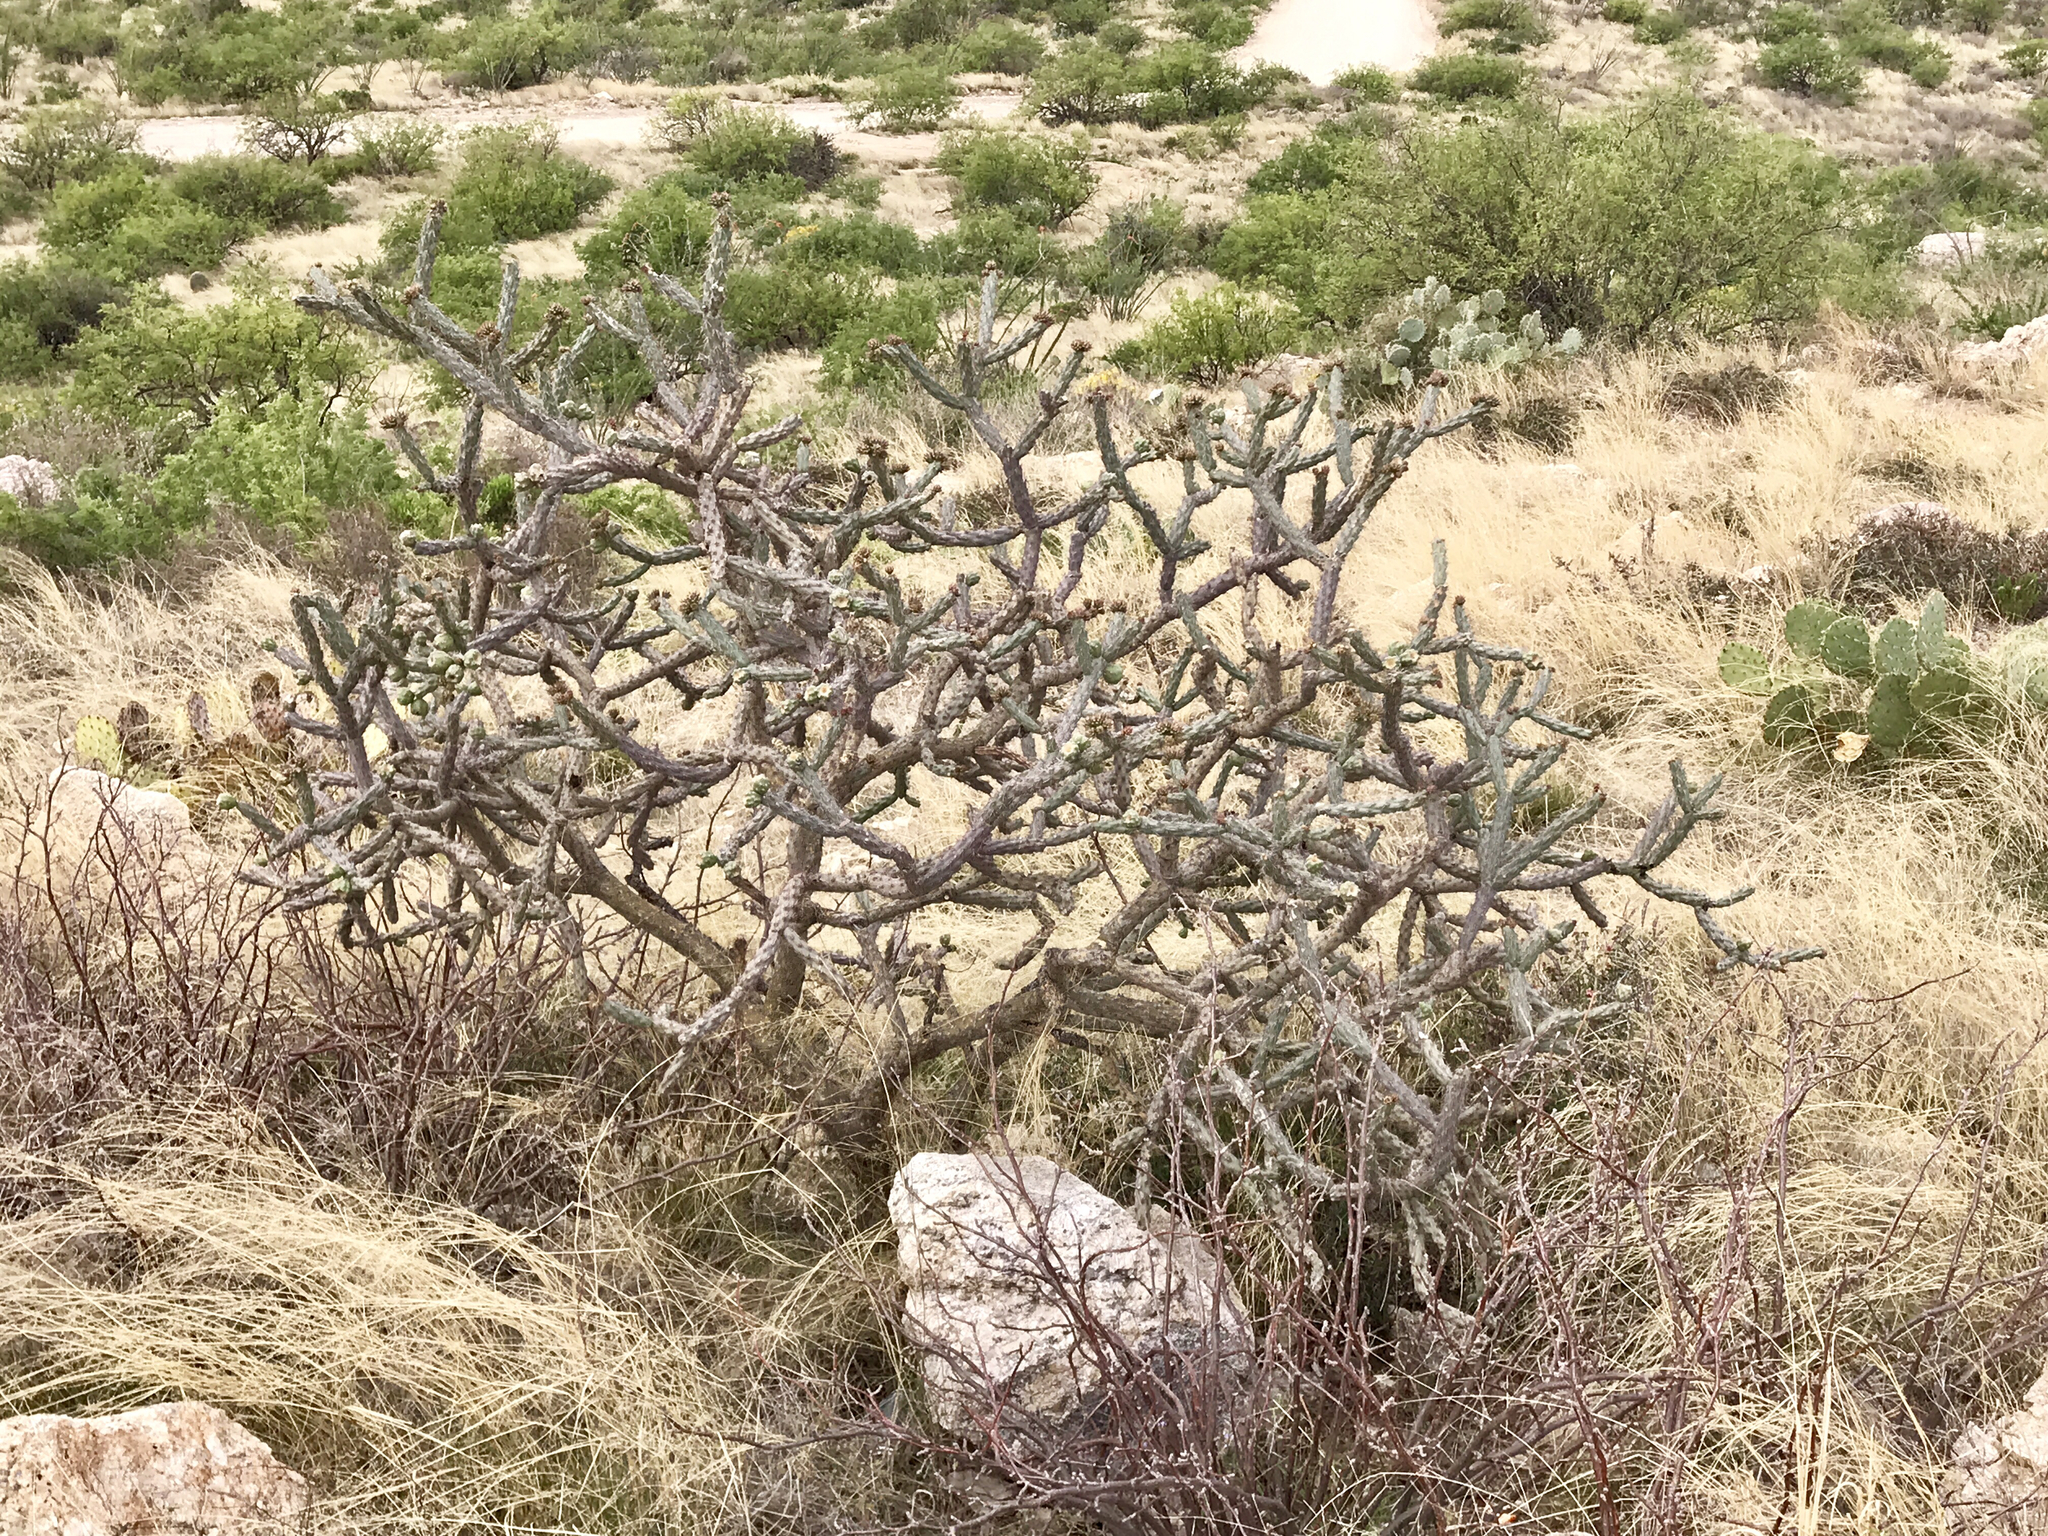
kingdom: Plantae
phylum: Tracheophyta
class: Magnoliopsida
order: Caryophyllales
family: Cactaceae
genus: Cylindropuntia
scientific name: Cylindropuntia thurberi
